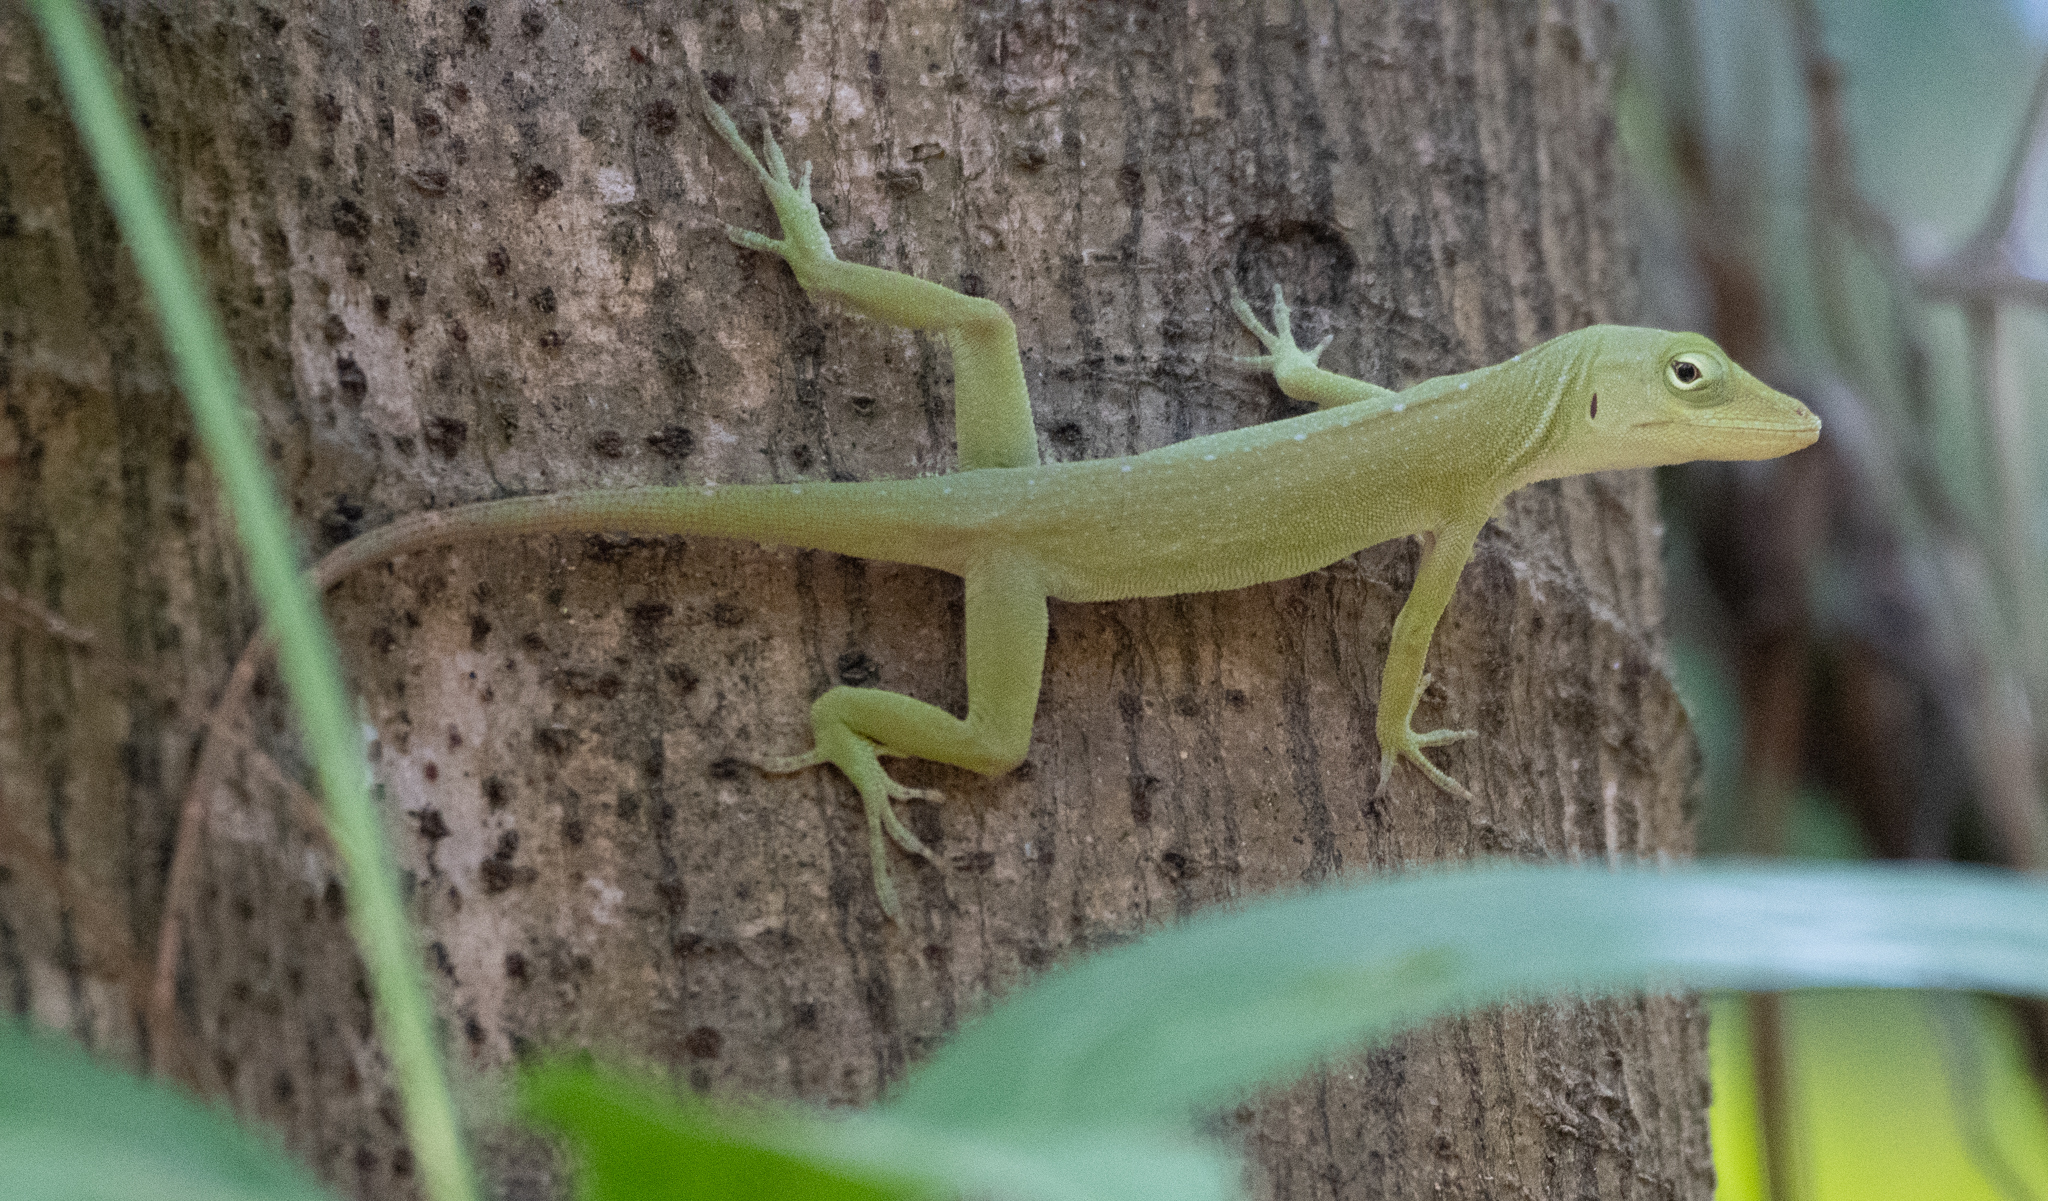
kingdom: Animalia
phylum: Chordata
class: Squamata
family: Dactyloidae
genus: Anolis
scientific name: Anolis biporcatus
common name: Giant green anole
